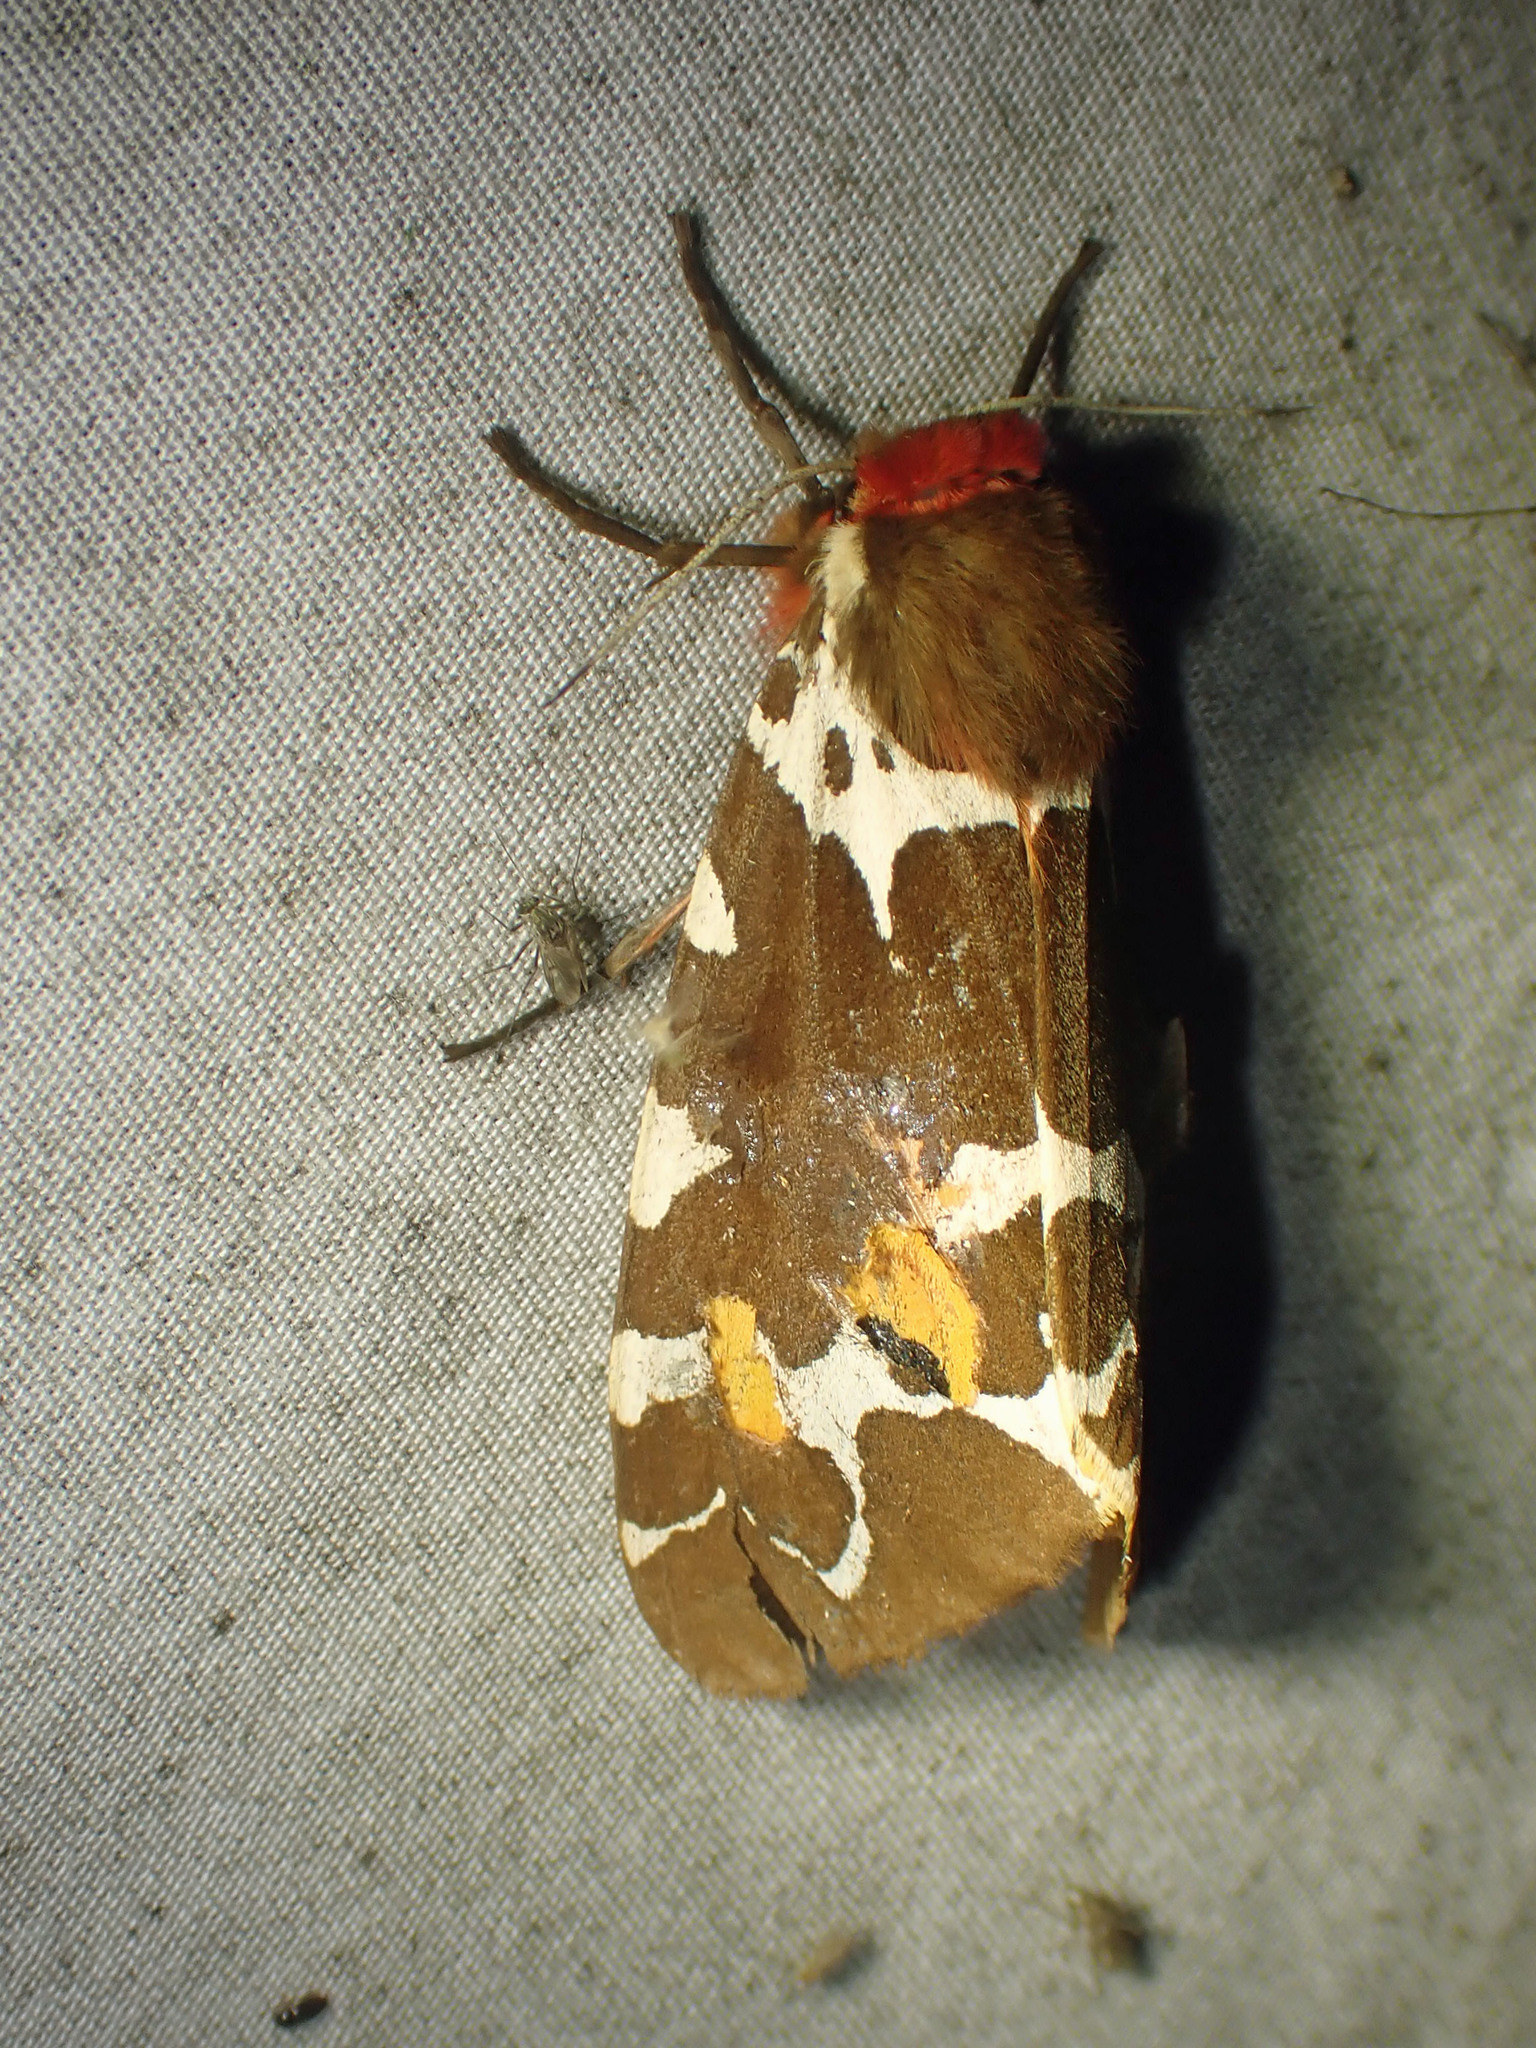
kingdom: Animalia
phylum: Arthropoda
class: Insecta
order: Lepidoptera
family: Erebidae
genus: Arctia
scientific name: Arctia caja
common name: Garden tiger
